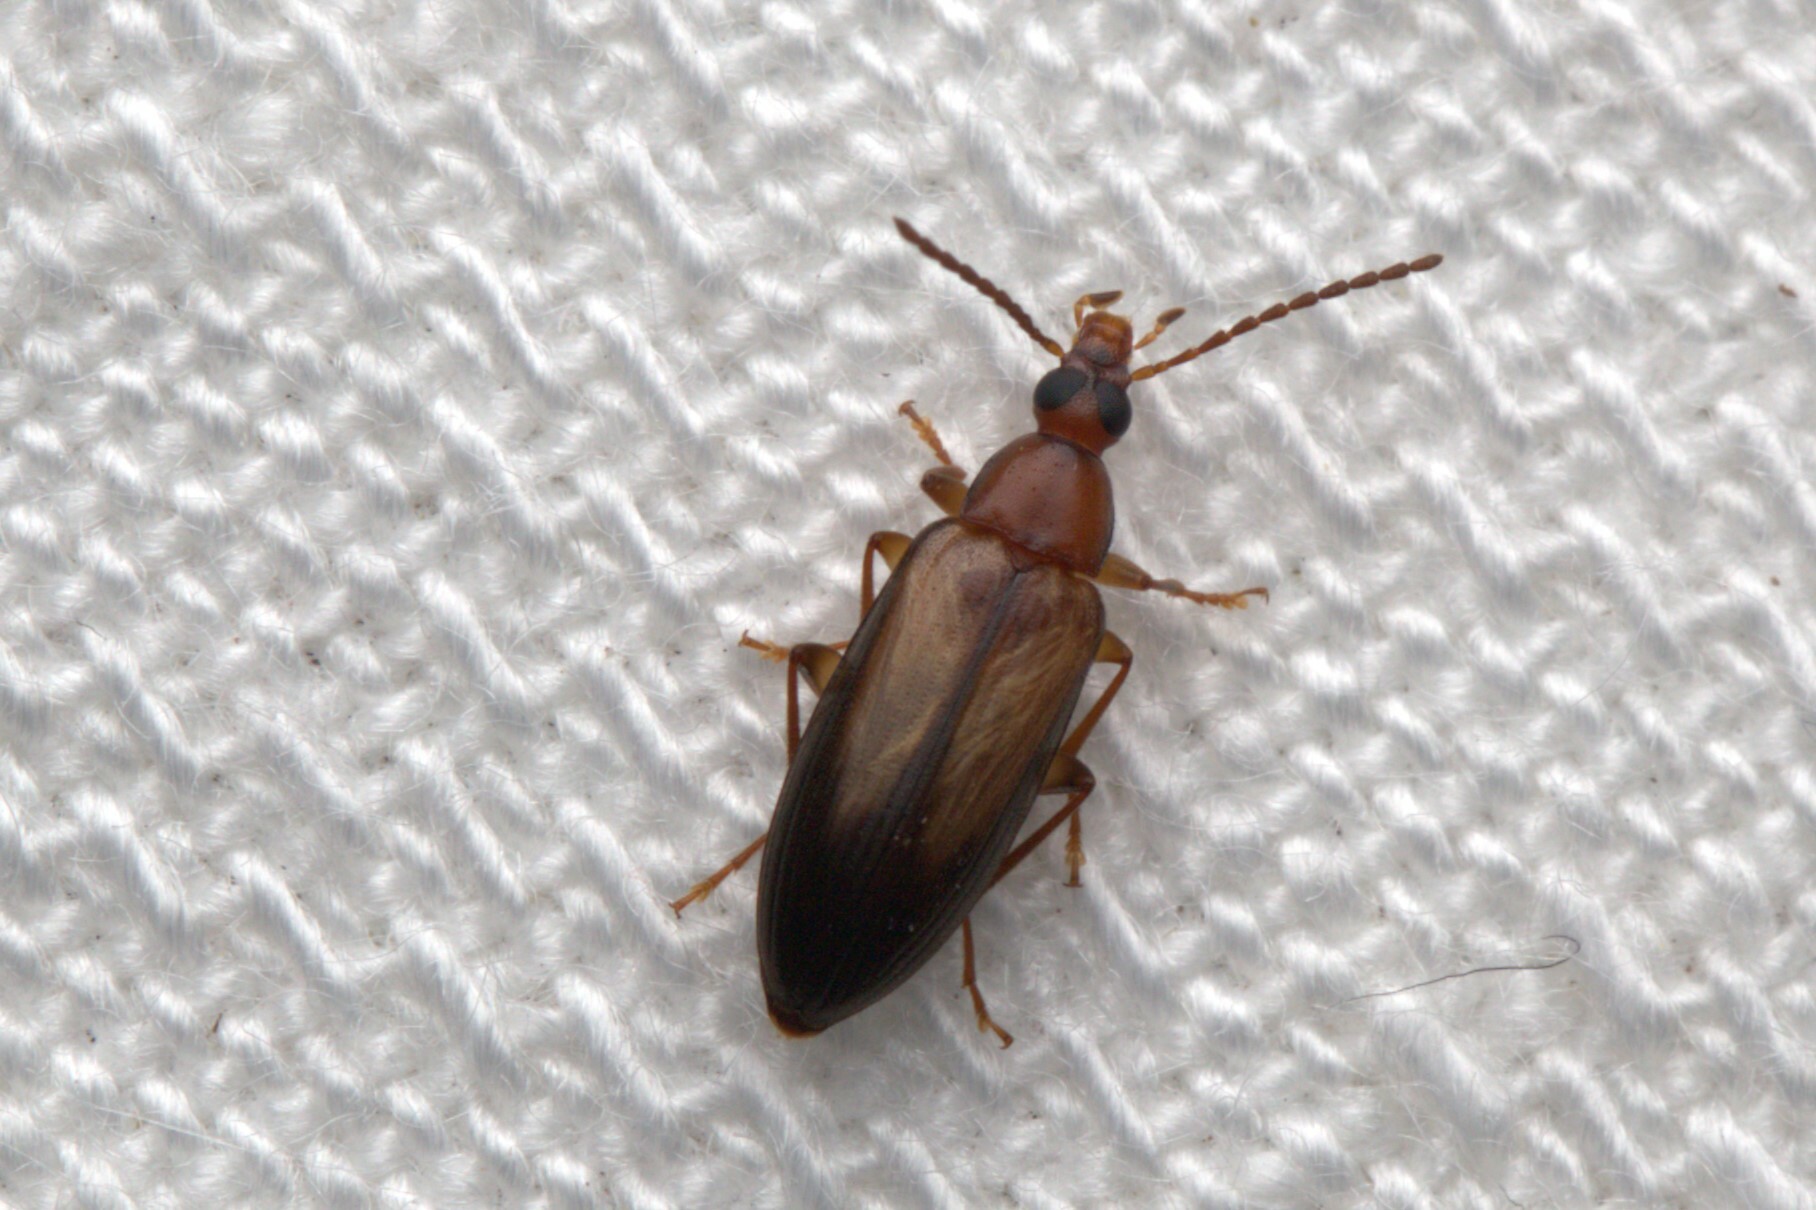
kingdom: Animalia
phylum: Arthropoda
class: Insecta
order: Coleoptera
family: Tenebrionidae
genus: Euomma
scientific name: Euomma
